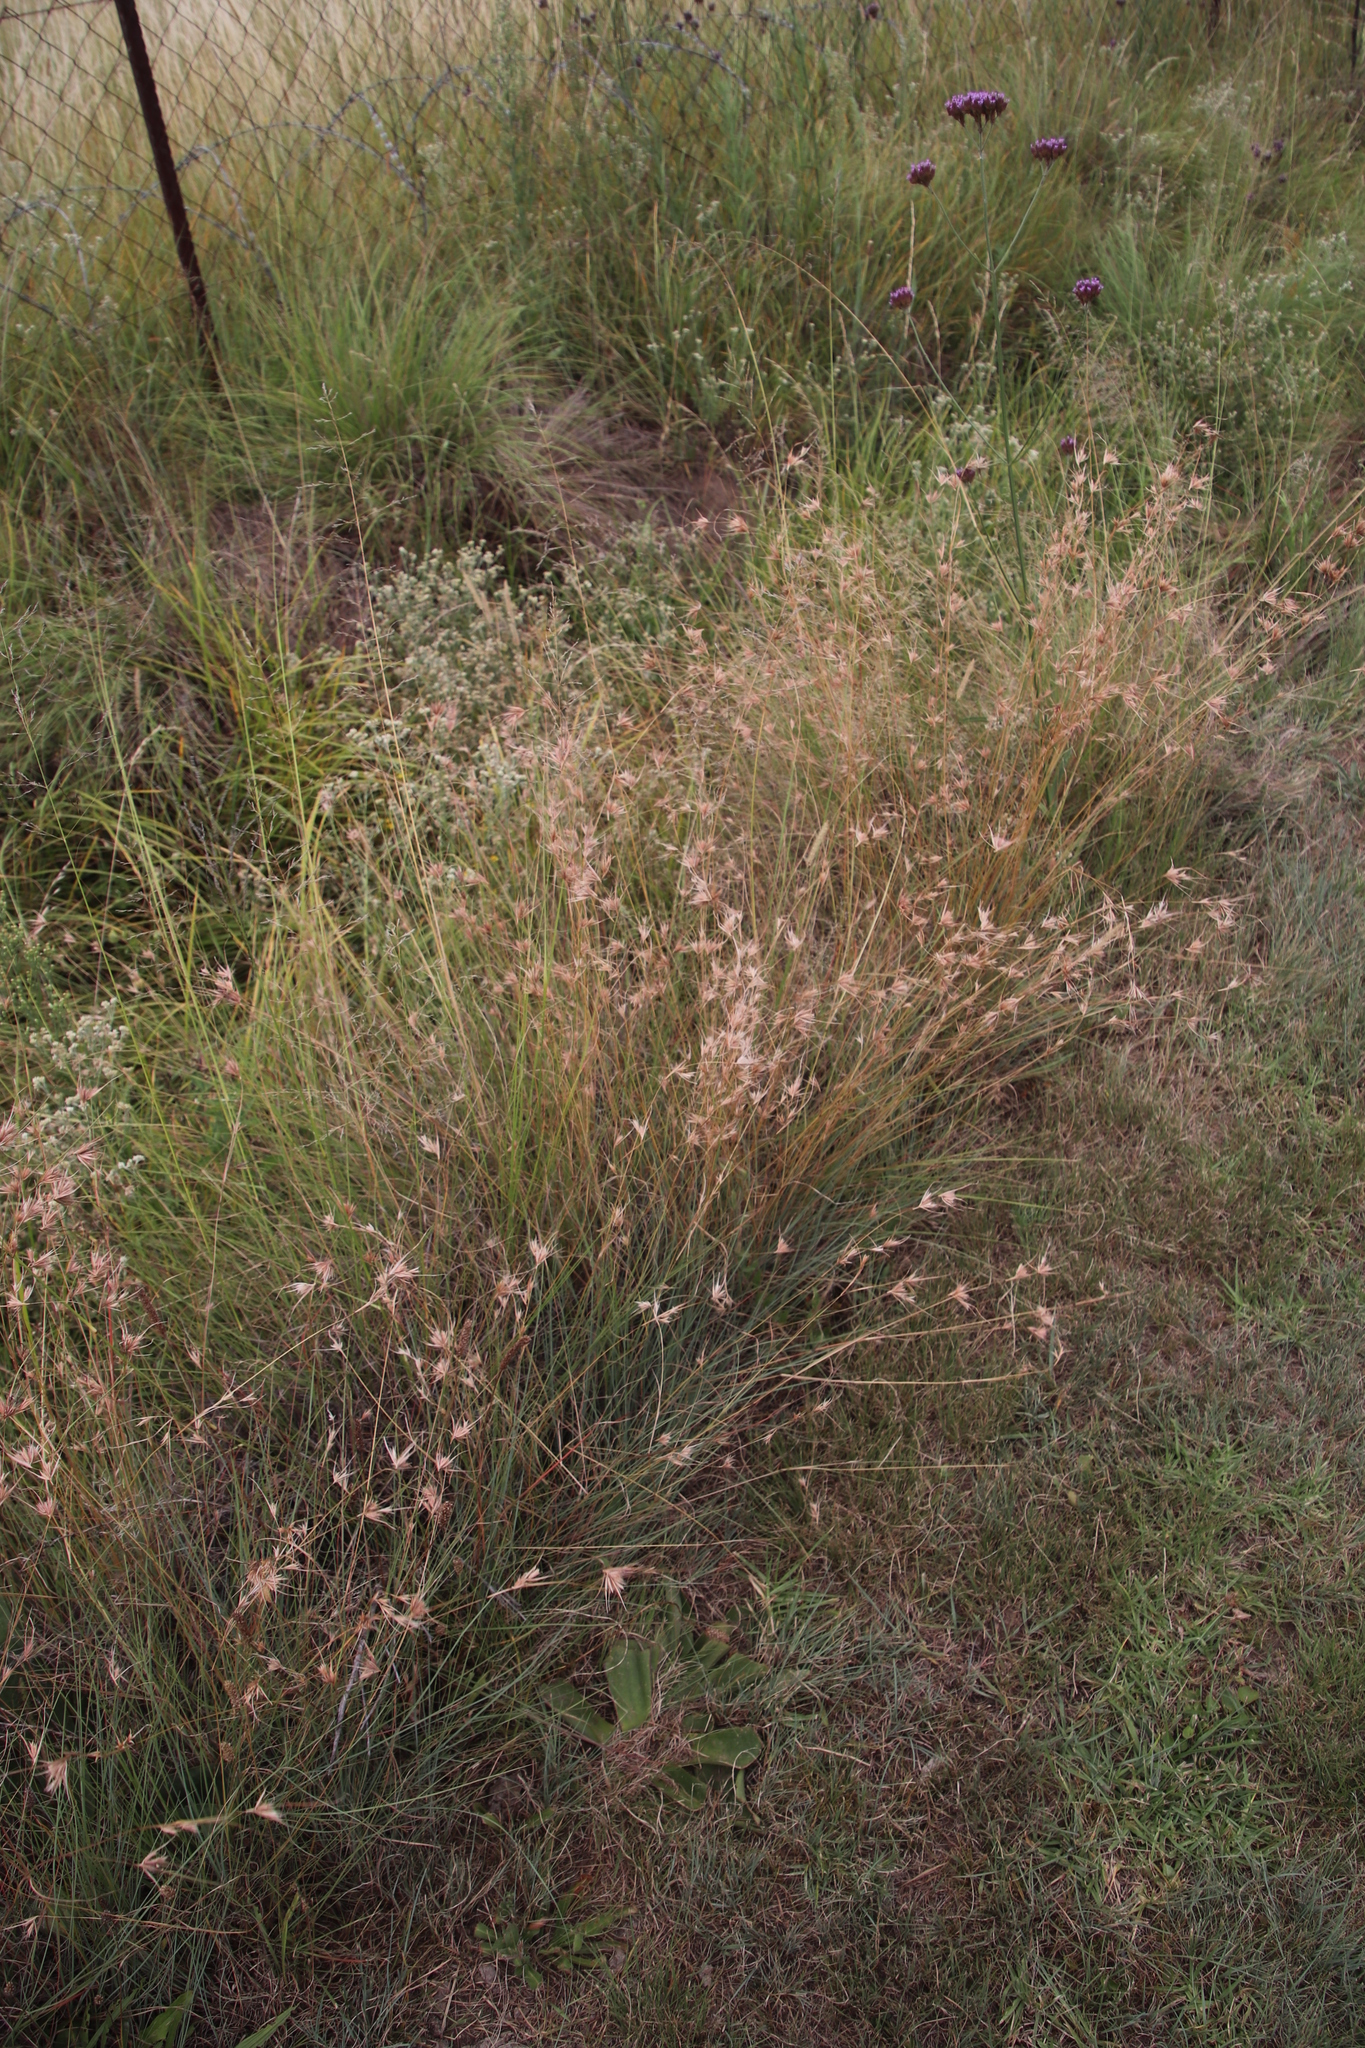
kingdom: Plantae
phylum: Tracheophyta
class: Liliopsida
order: Poales
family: Poaceae
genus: Themeda
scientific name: Themeda triandra
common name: Kangaroo grass
